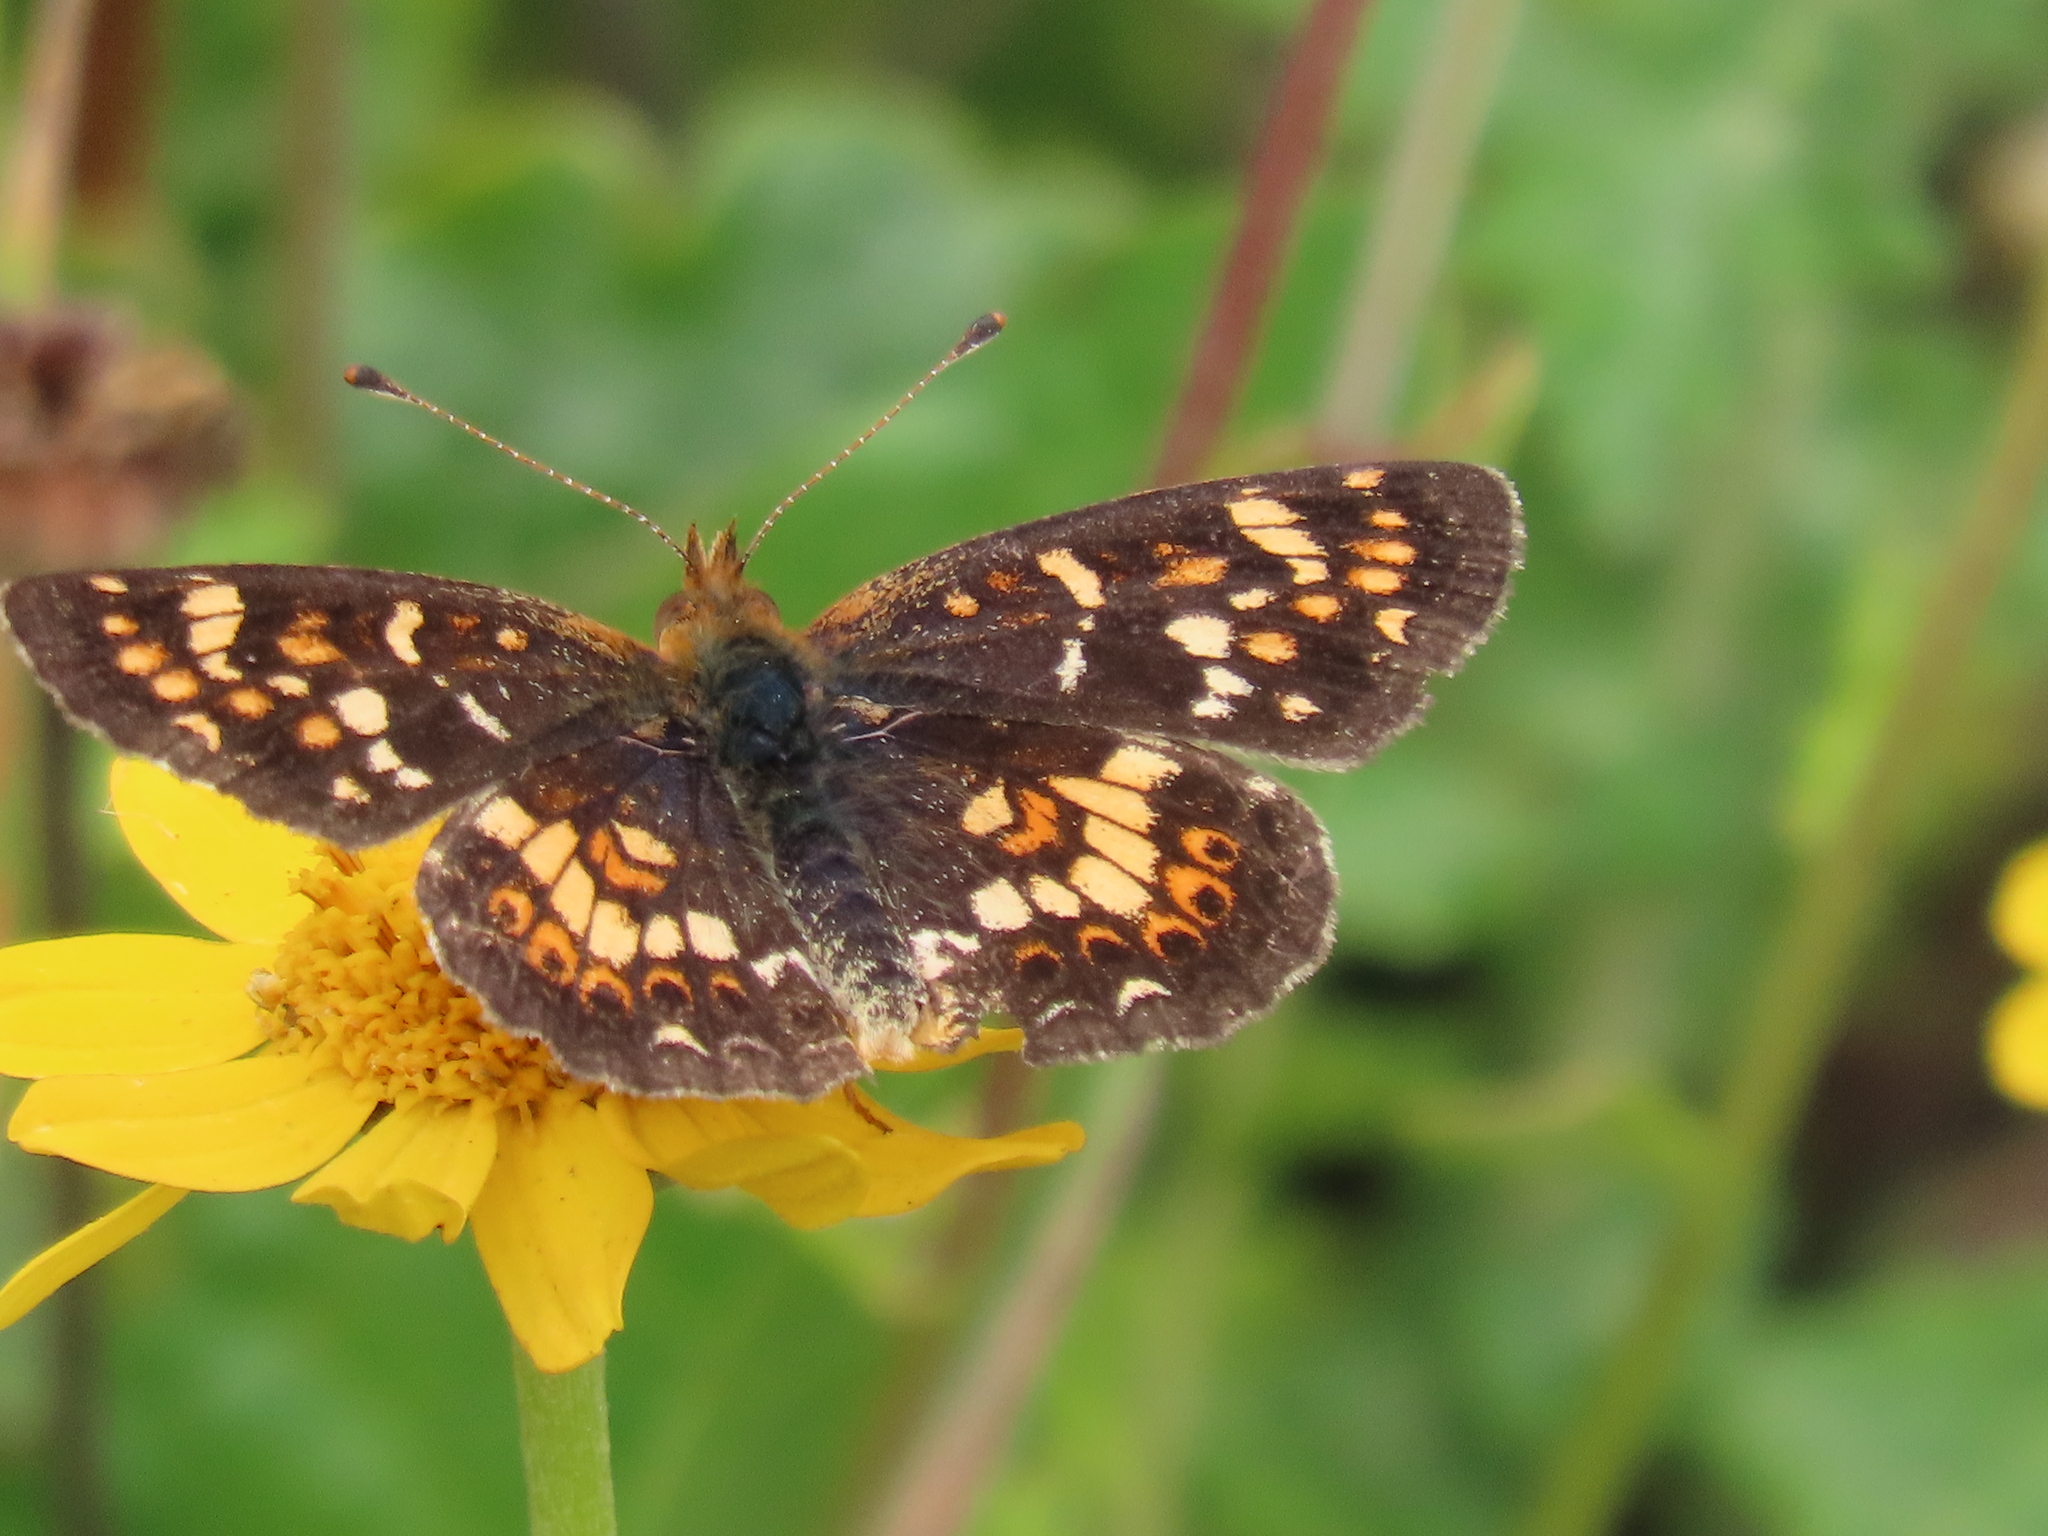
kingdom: Animalia
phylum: Arthropoda
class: Insecta
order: Lepidoptera
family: Nymphalidae
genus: Phyciodes
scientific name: Phyciodes tharos
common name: Pearl crescent
